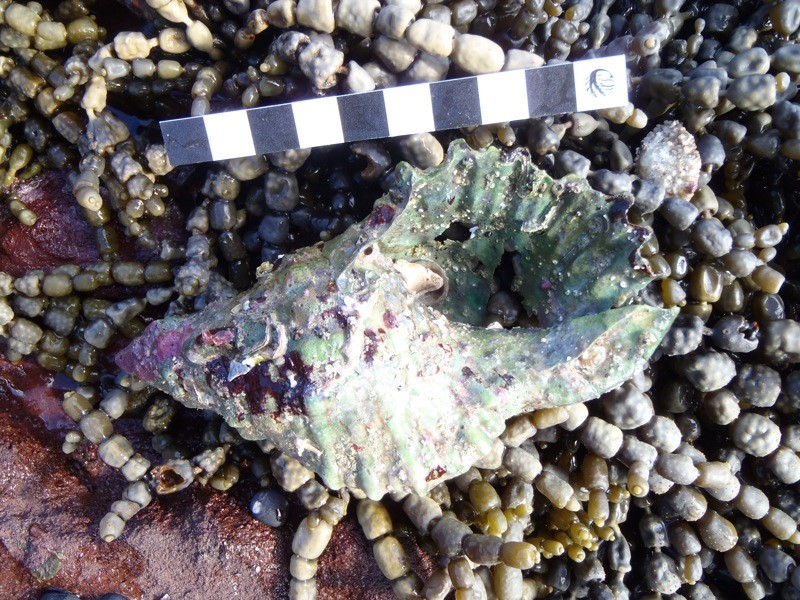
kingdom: Animalia
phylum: Mollusca
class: Gastropoda
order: Littorinimorpha
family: Cymatiidae
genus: Cabestana
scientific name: Cabestana spengleri
